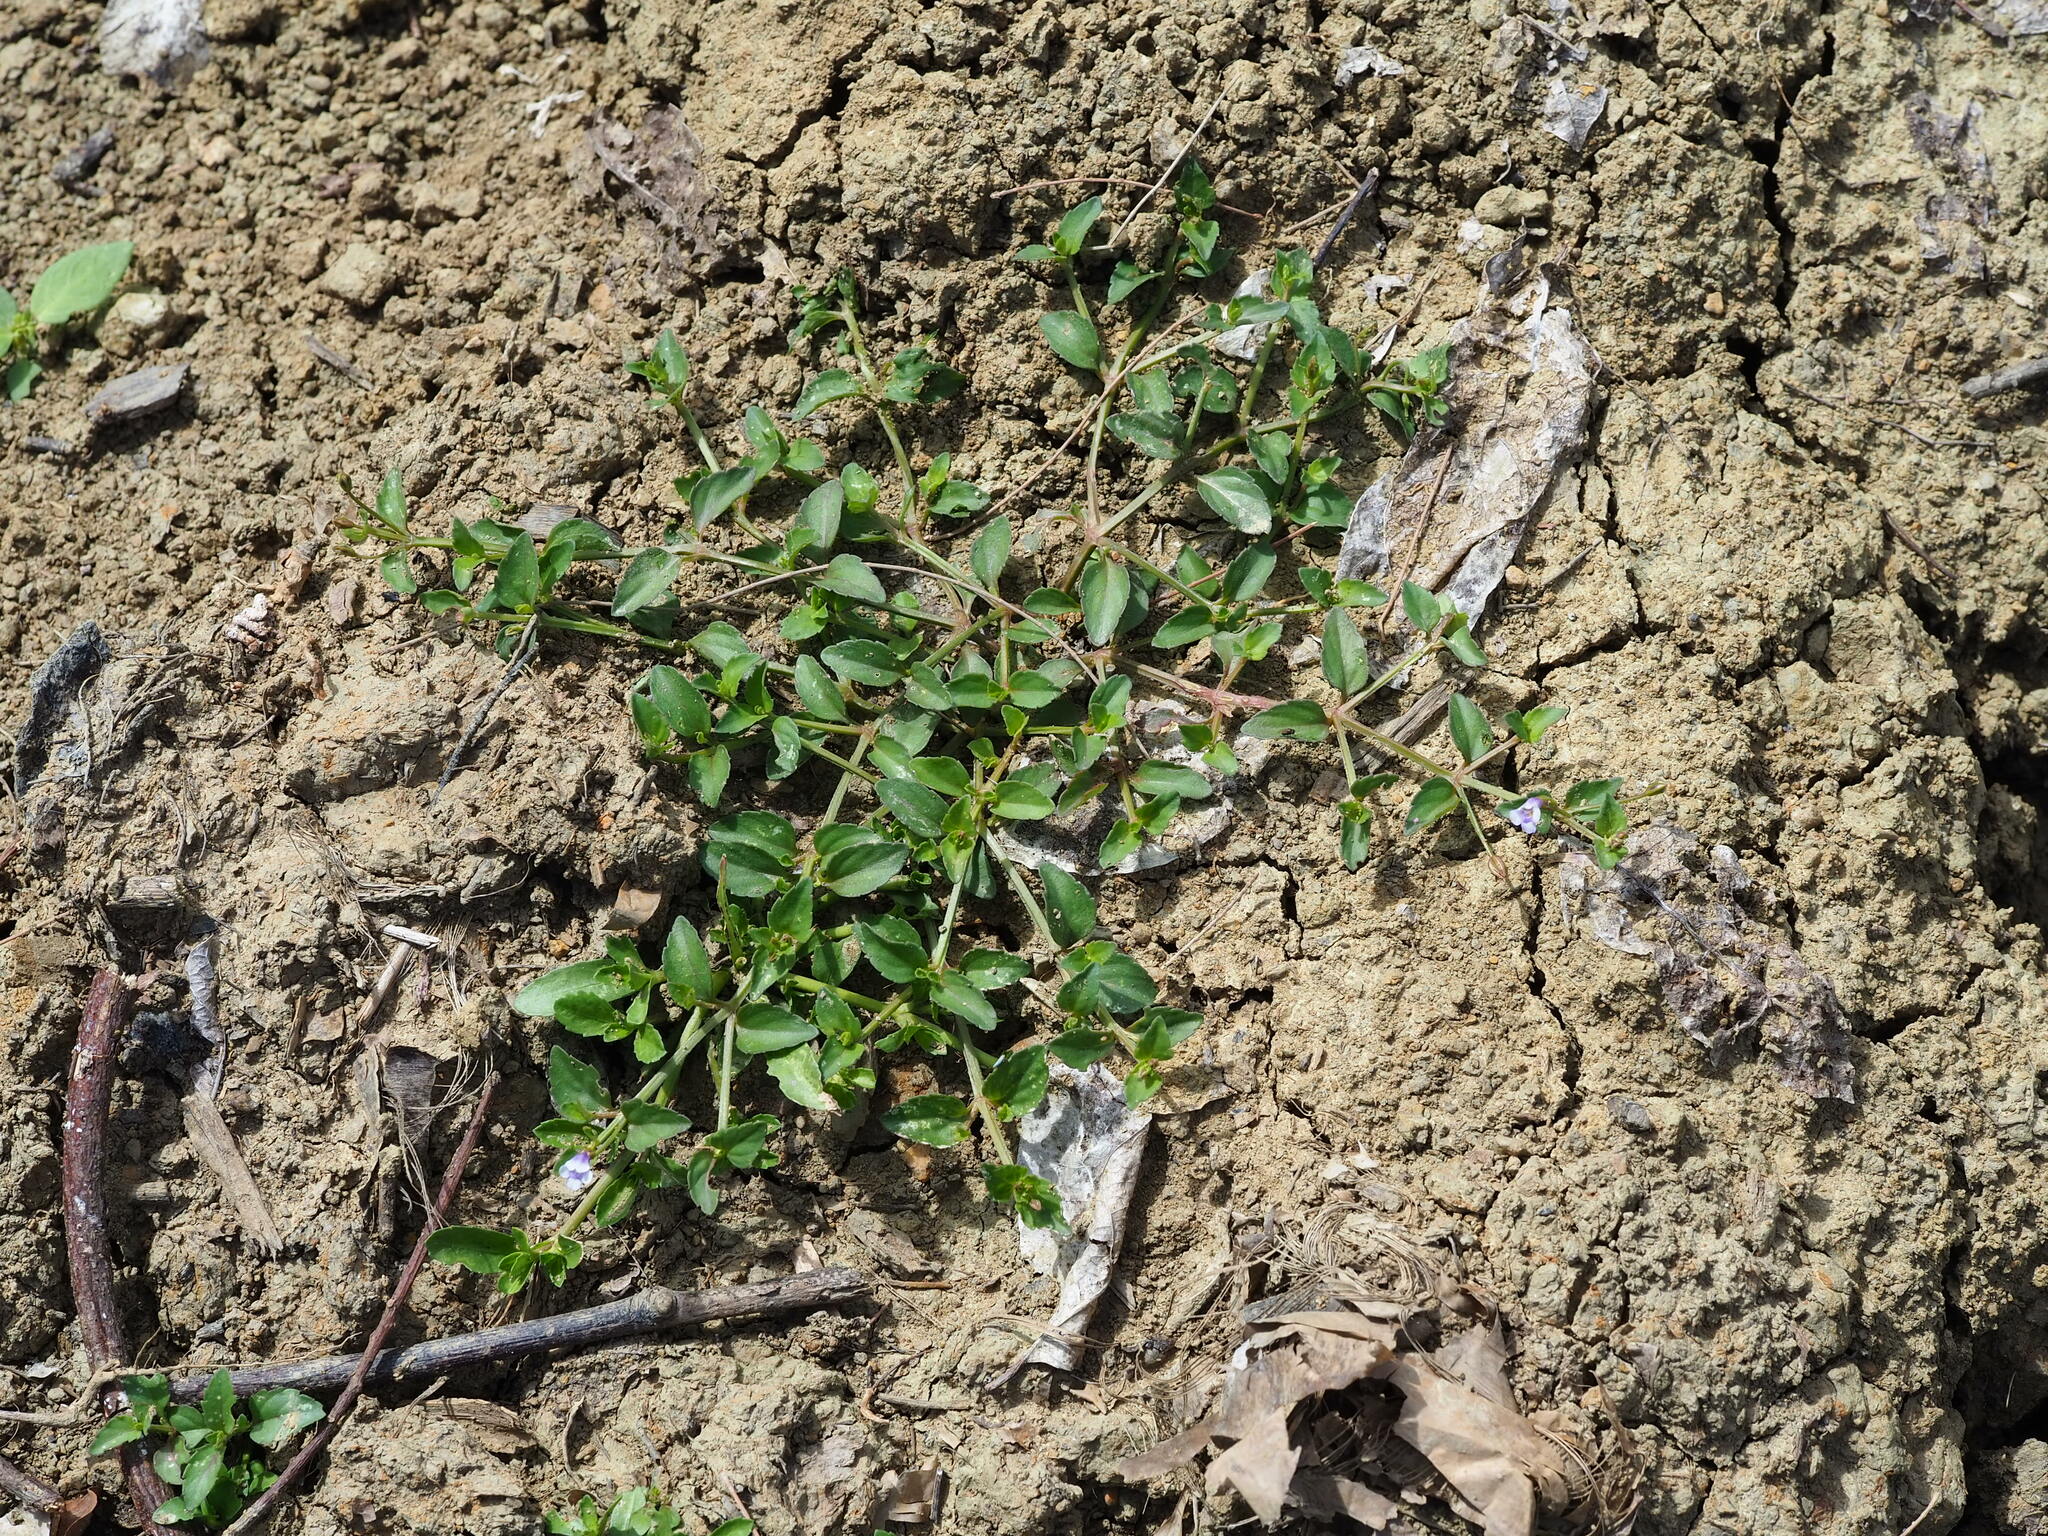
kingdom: Plantae
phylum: Tracheophyta
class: Magnoliopsida
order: Lamiales
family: Linderniaceae
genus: Torenia
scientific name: Torenia crustacea
